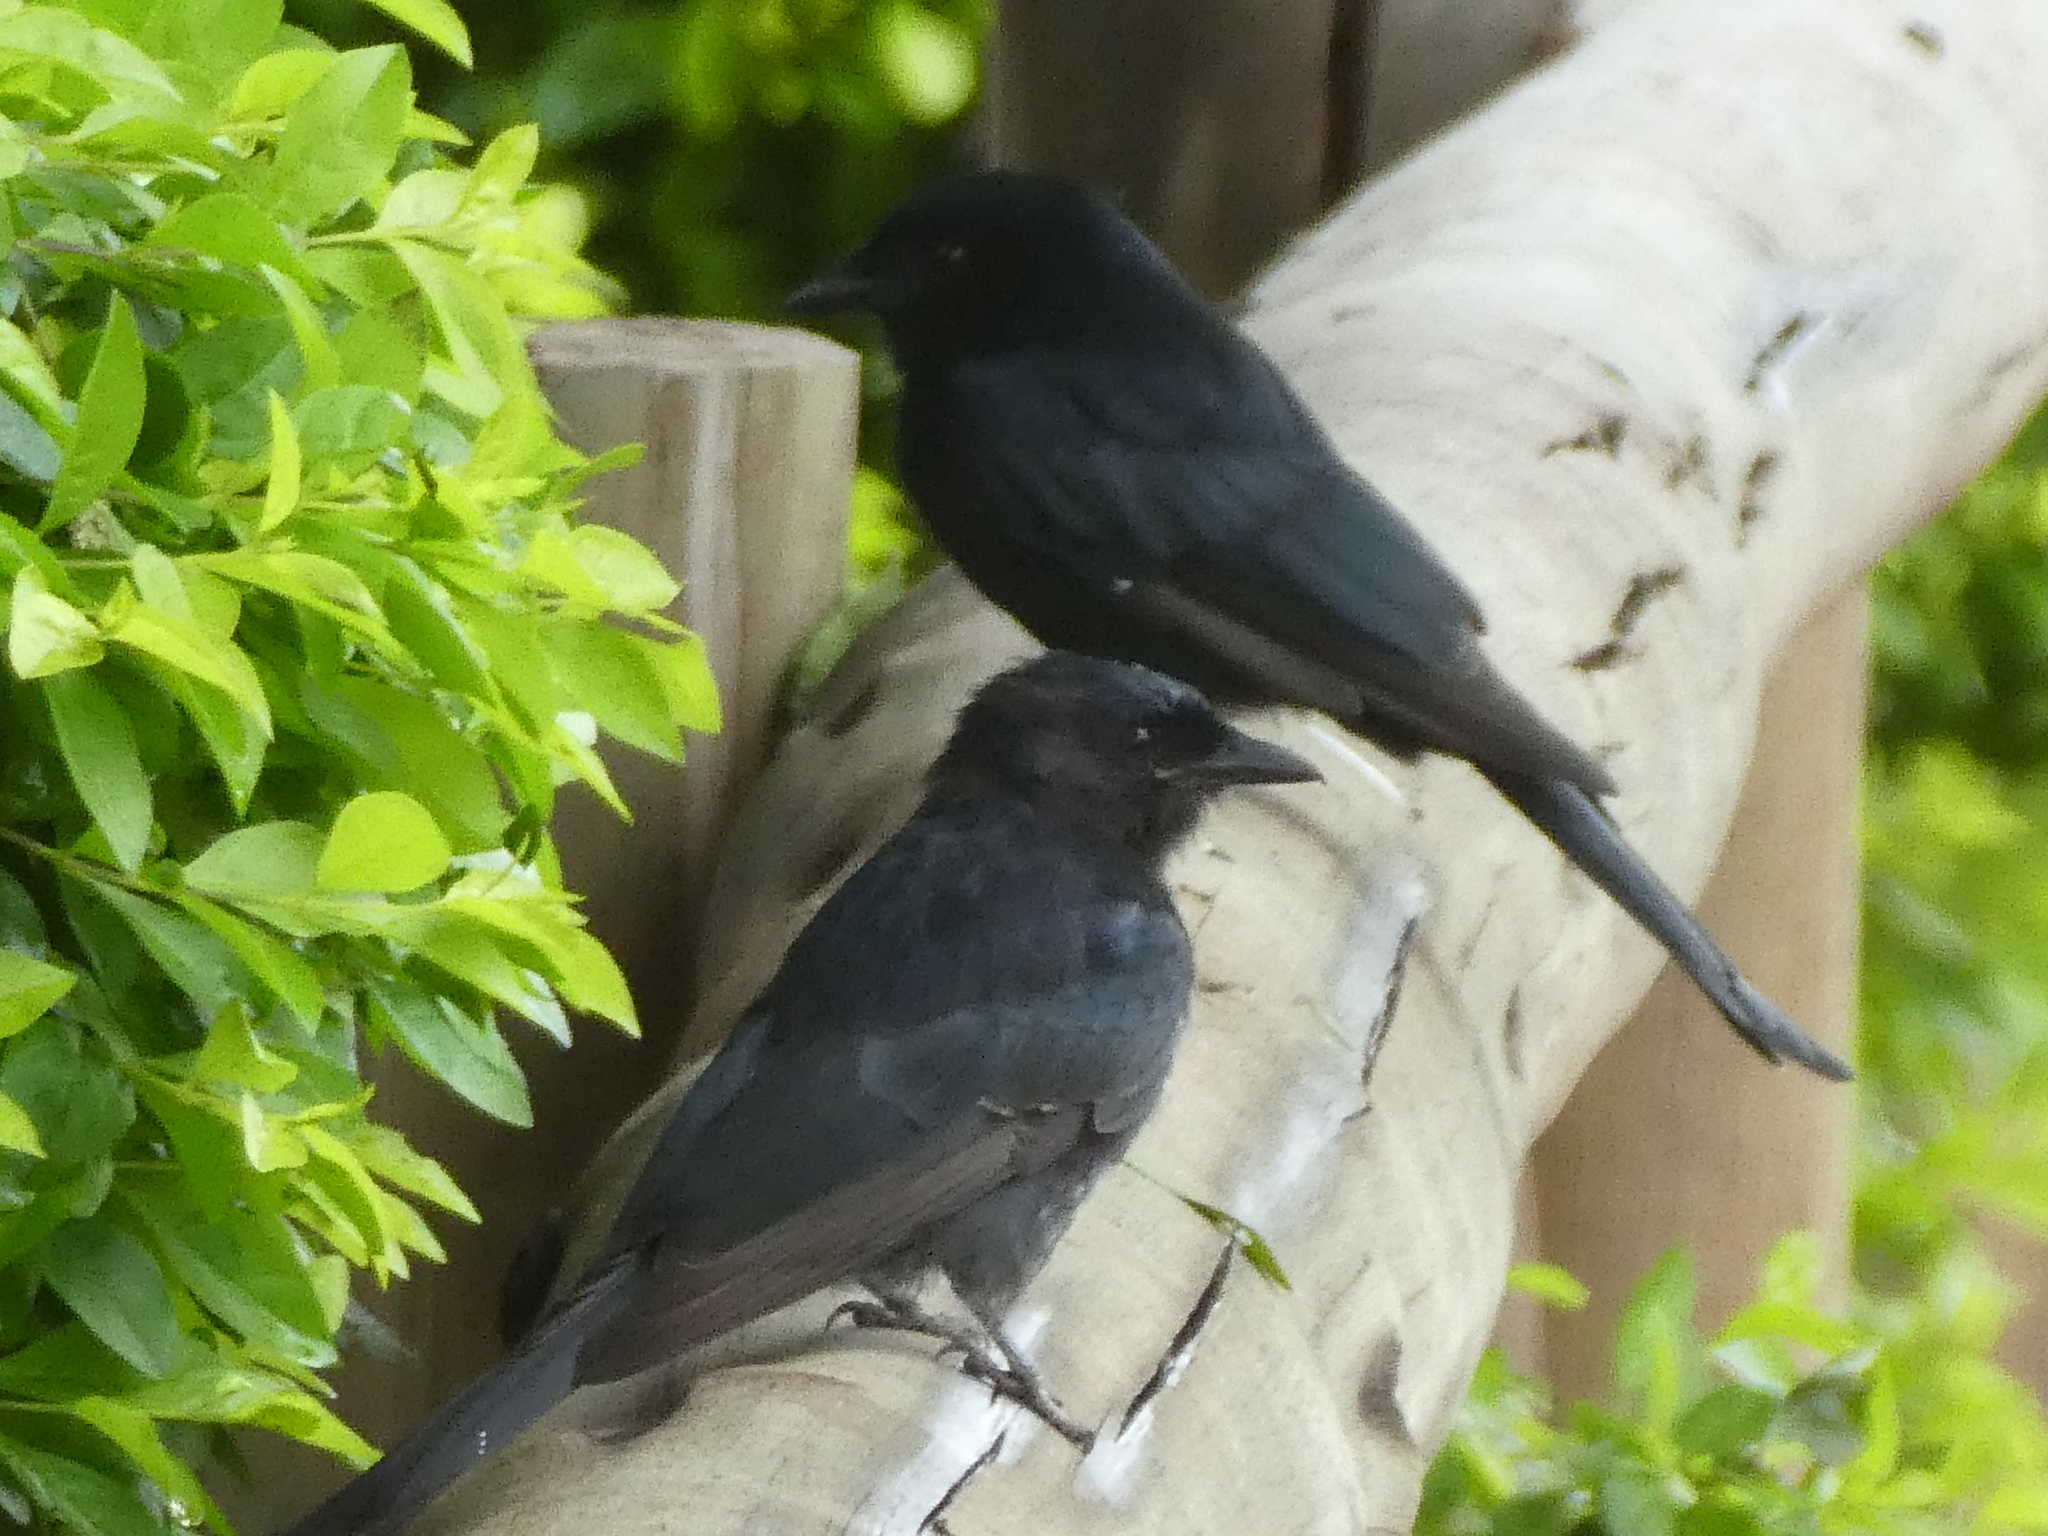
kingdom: Animalia
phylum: Chordata
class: Aves
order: Passeriformes
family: Dicruridae
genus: Dicrurus
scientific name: Dicrurus adsimilis
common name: Fork-tailed drongo
